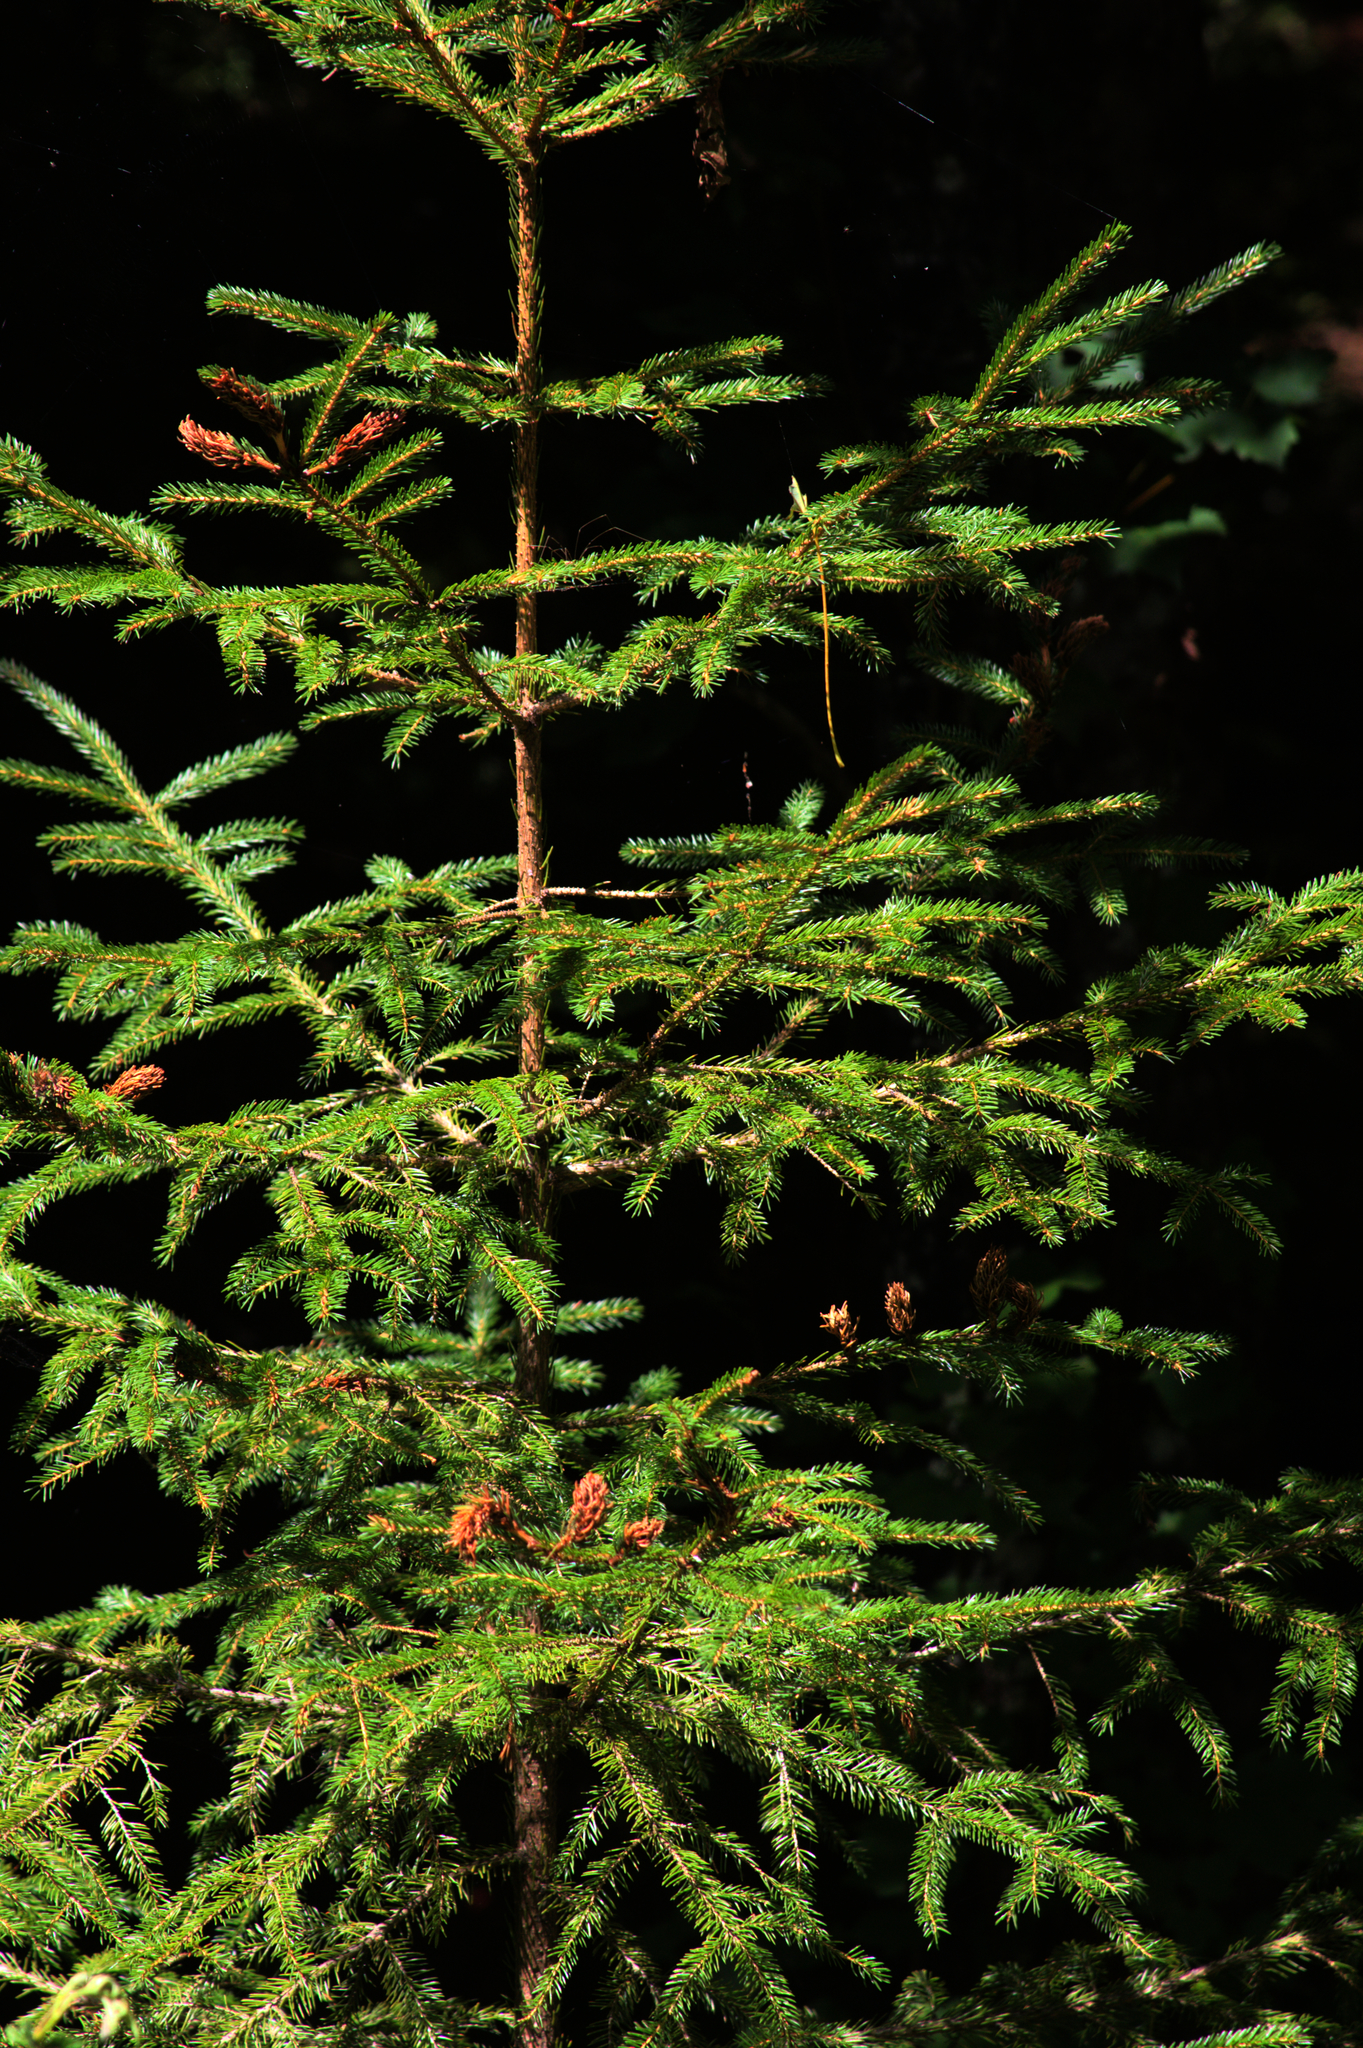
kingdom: Plantae
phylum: Tracheophyta
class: Pinopsida
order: Pinales
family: Pinaceae
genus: Picea
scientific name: Picea rubens
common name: Red spruce
